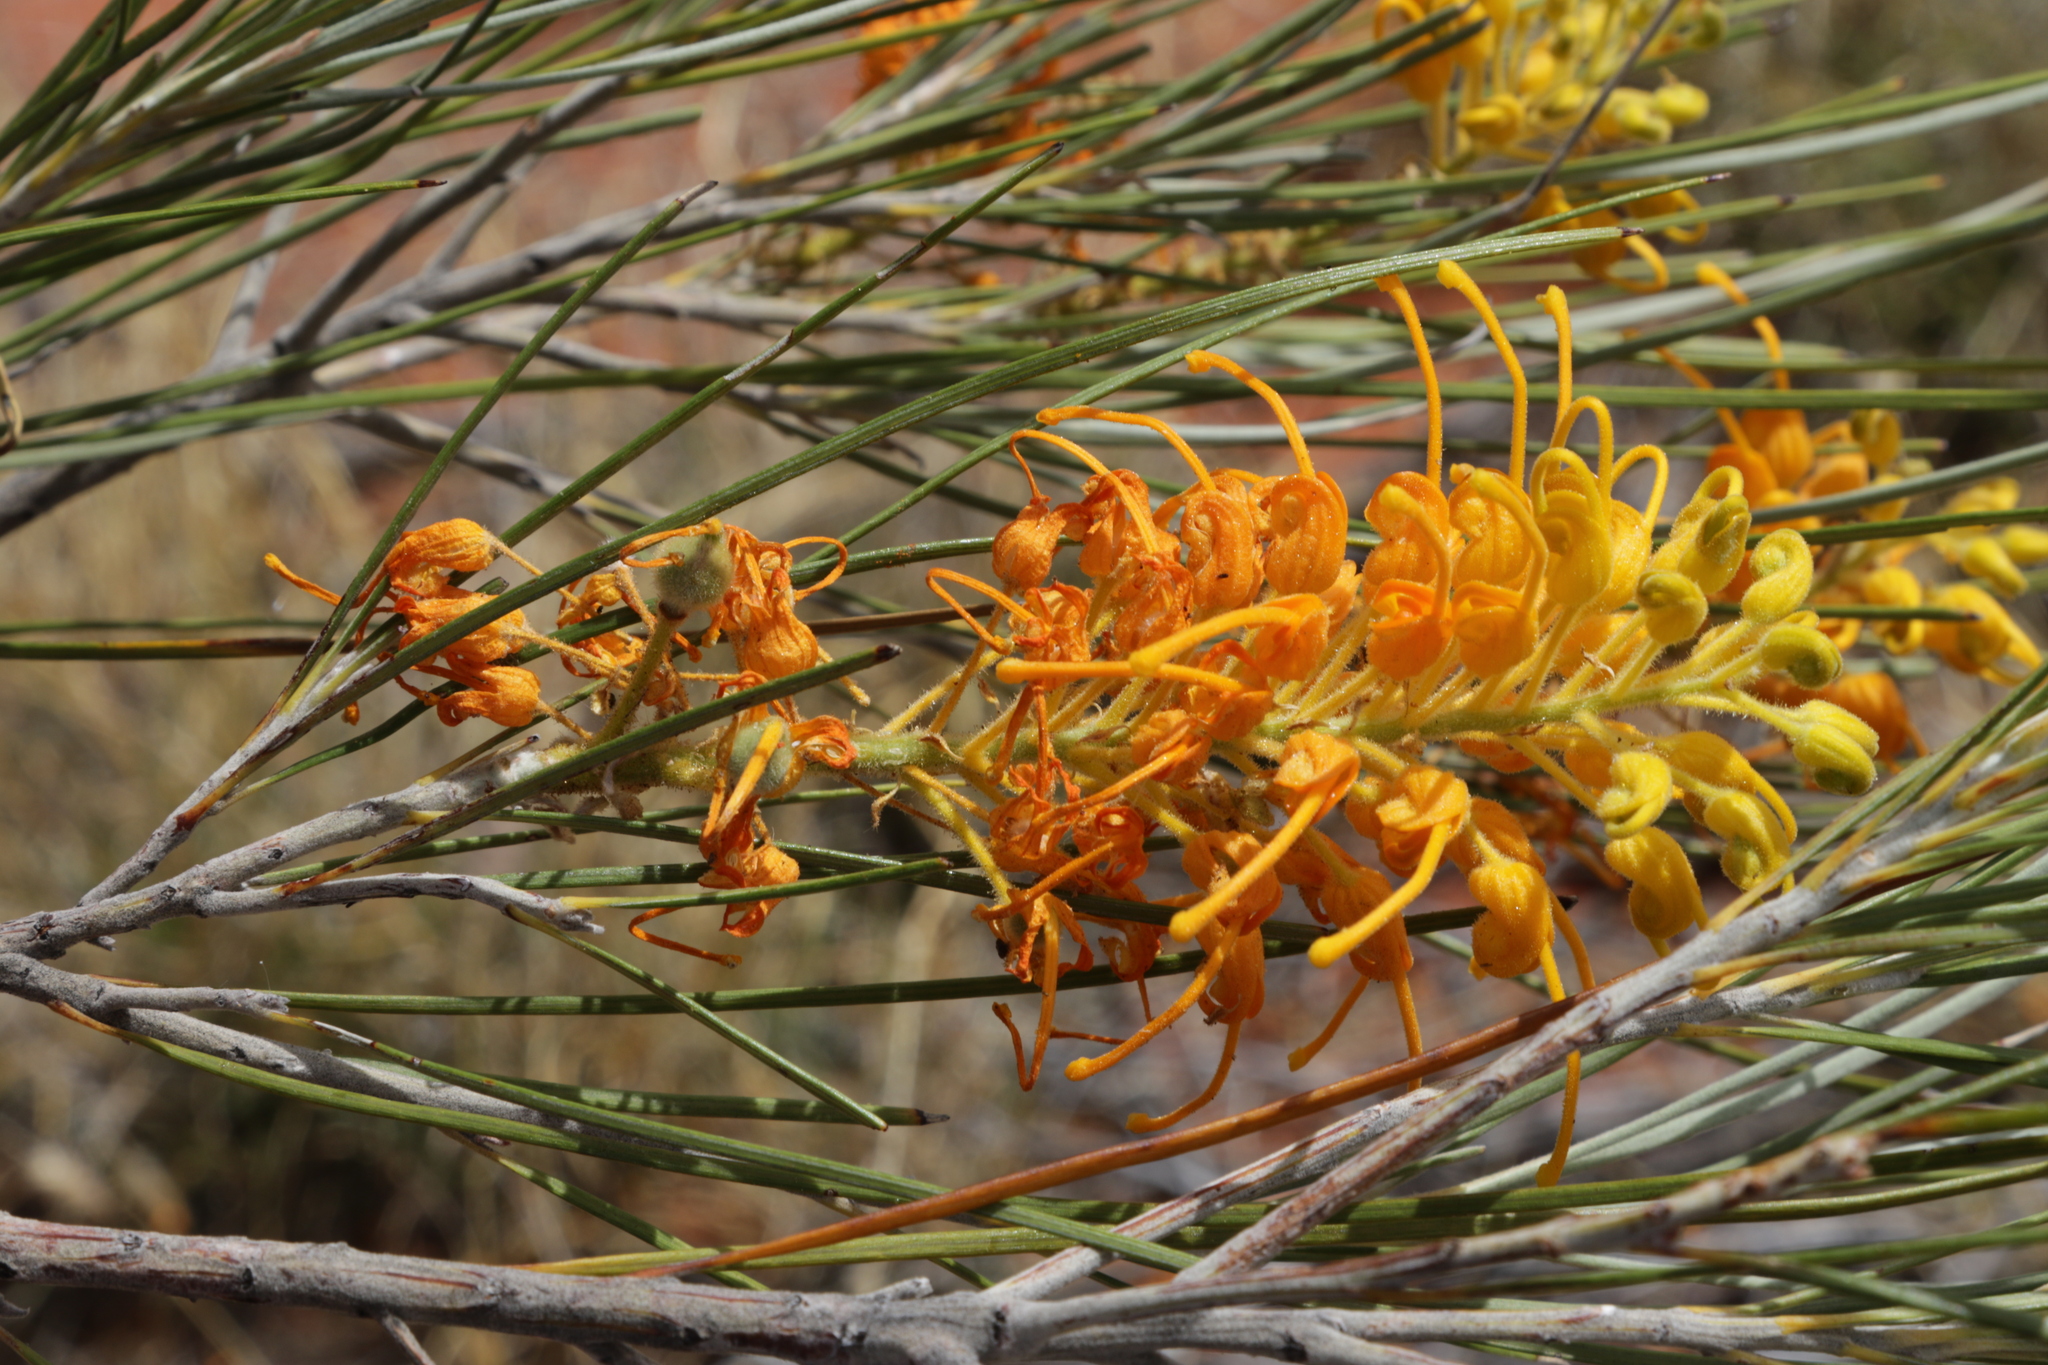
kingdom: Plantae
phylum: Tracheophyta
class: Magnoliopsida
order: Proteales
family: Proteaceae
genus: Grevillea
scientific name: Grevillea juncifolia
